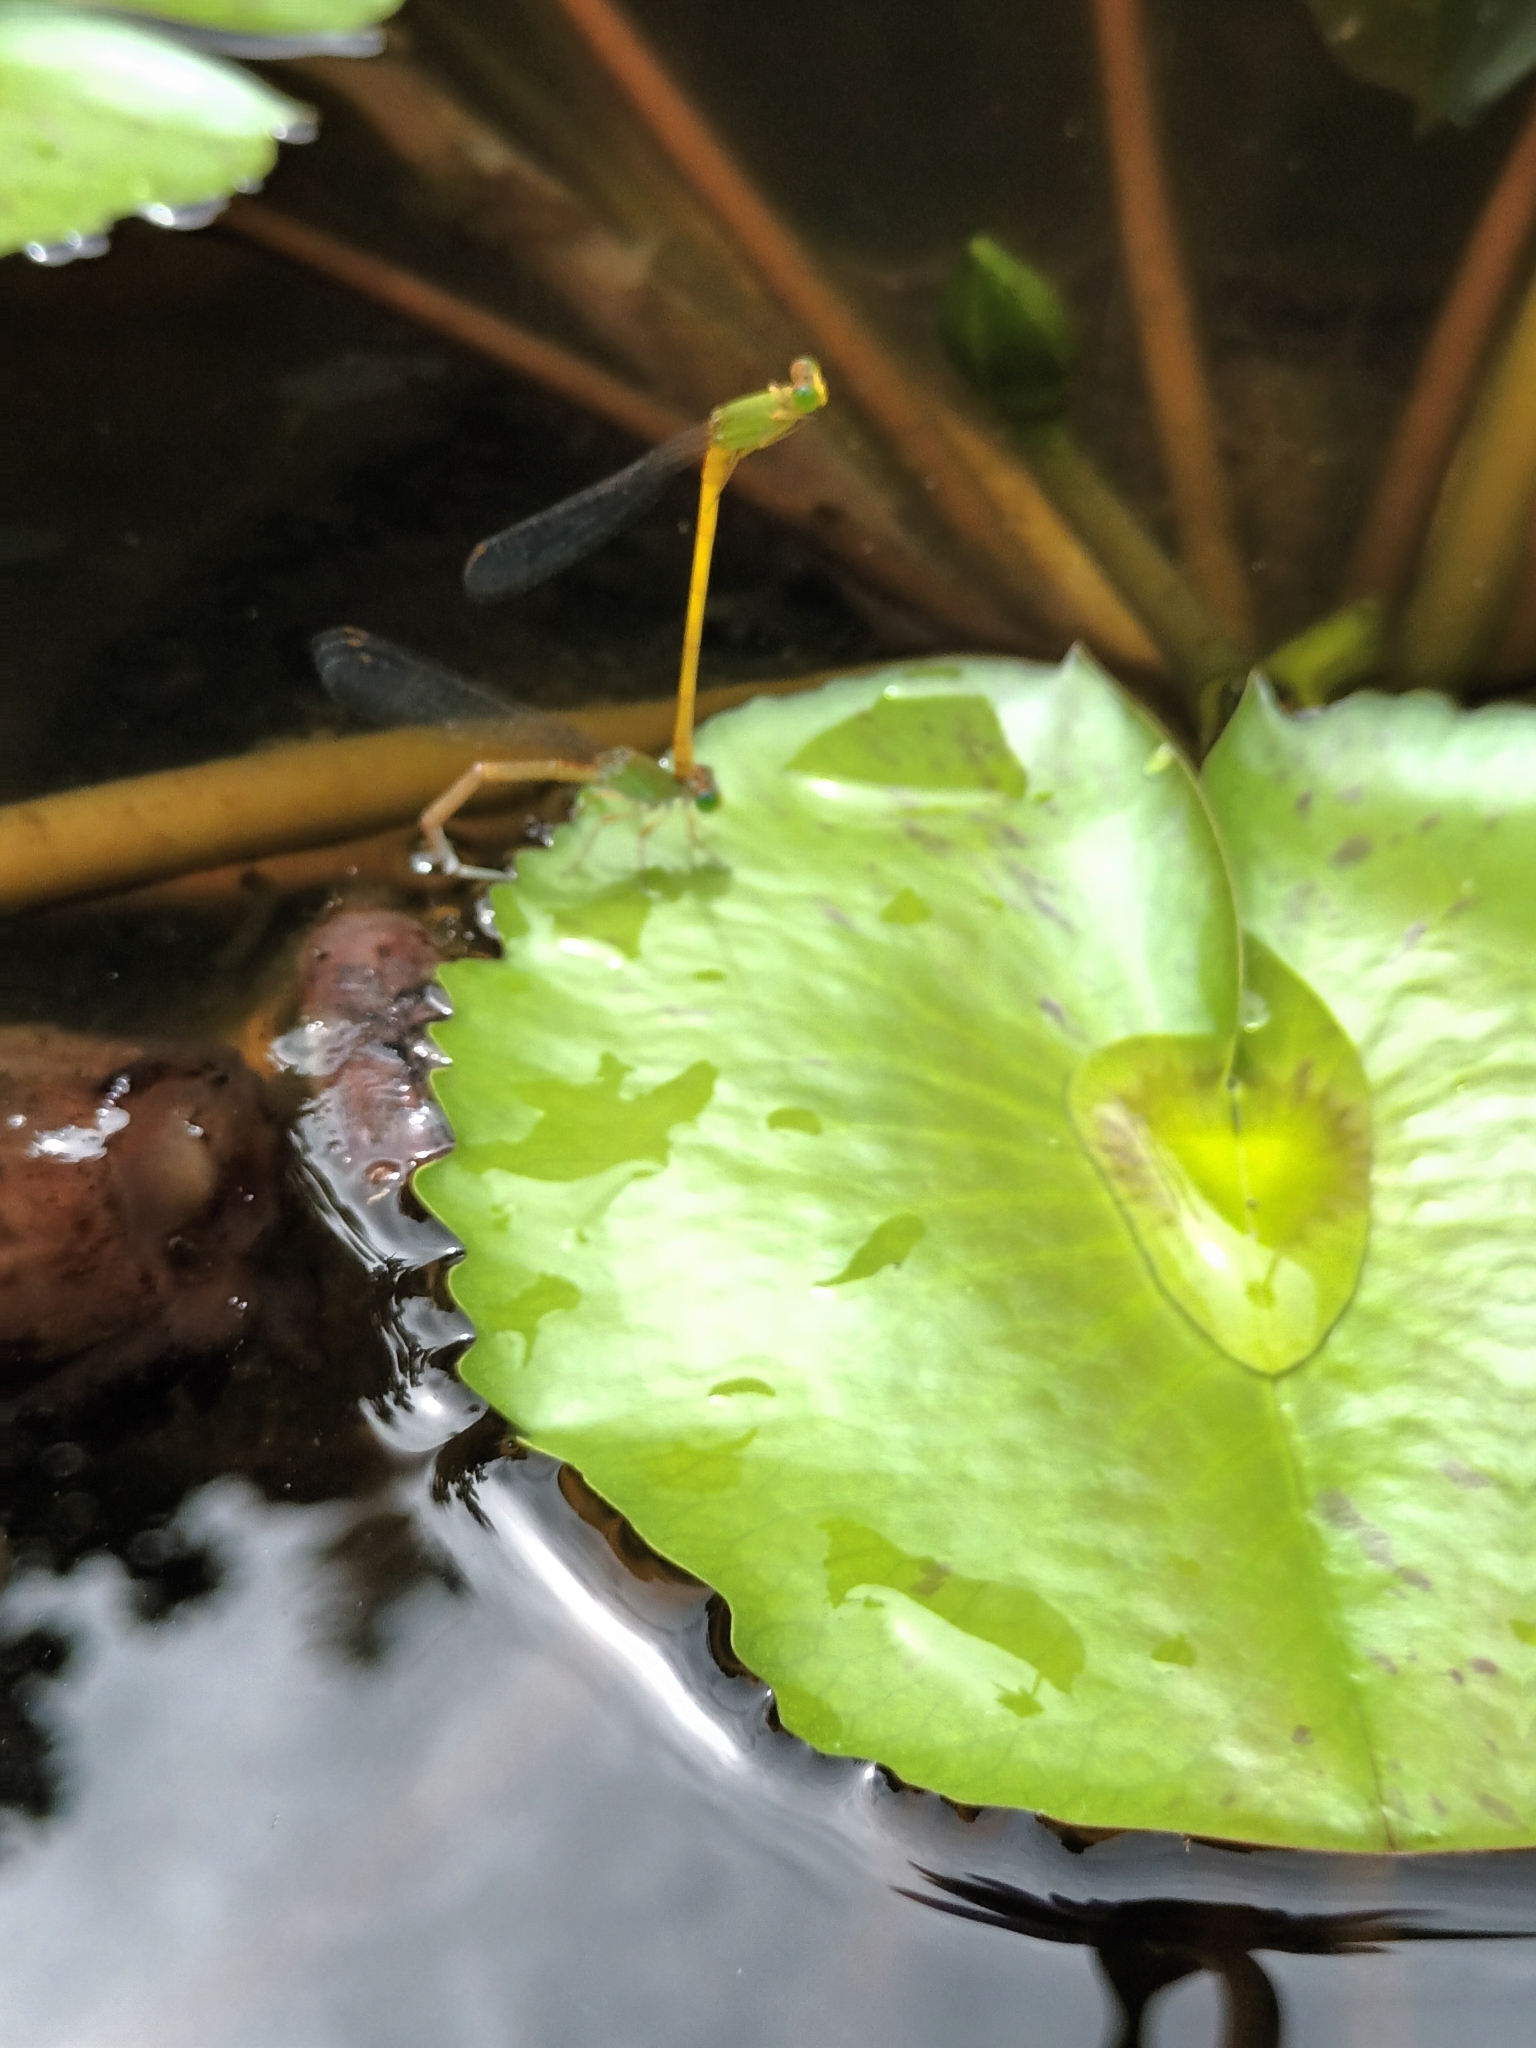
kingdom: Animalia
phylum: Arthropoda
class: Insecta
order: Odonata
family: Coenagrionidae
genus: Ceriagrion
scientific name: Ceriagrion coromandelianum
